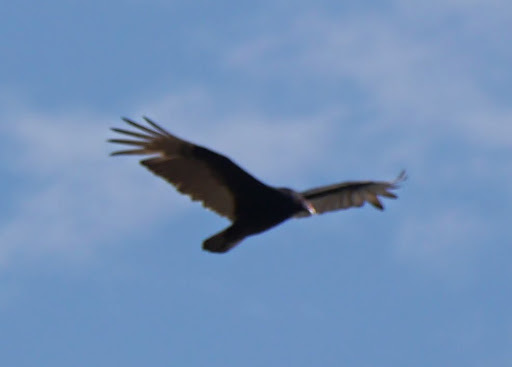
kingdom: Animalia
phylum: Chordata
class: Aves
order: Accipitriformes
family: Cathartidae
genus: Cathartes
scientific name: Cathartes aura
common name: Turkey vulture
